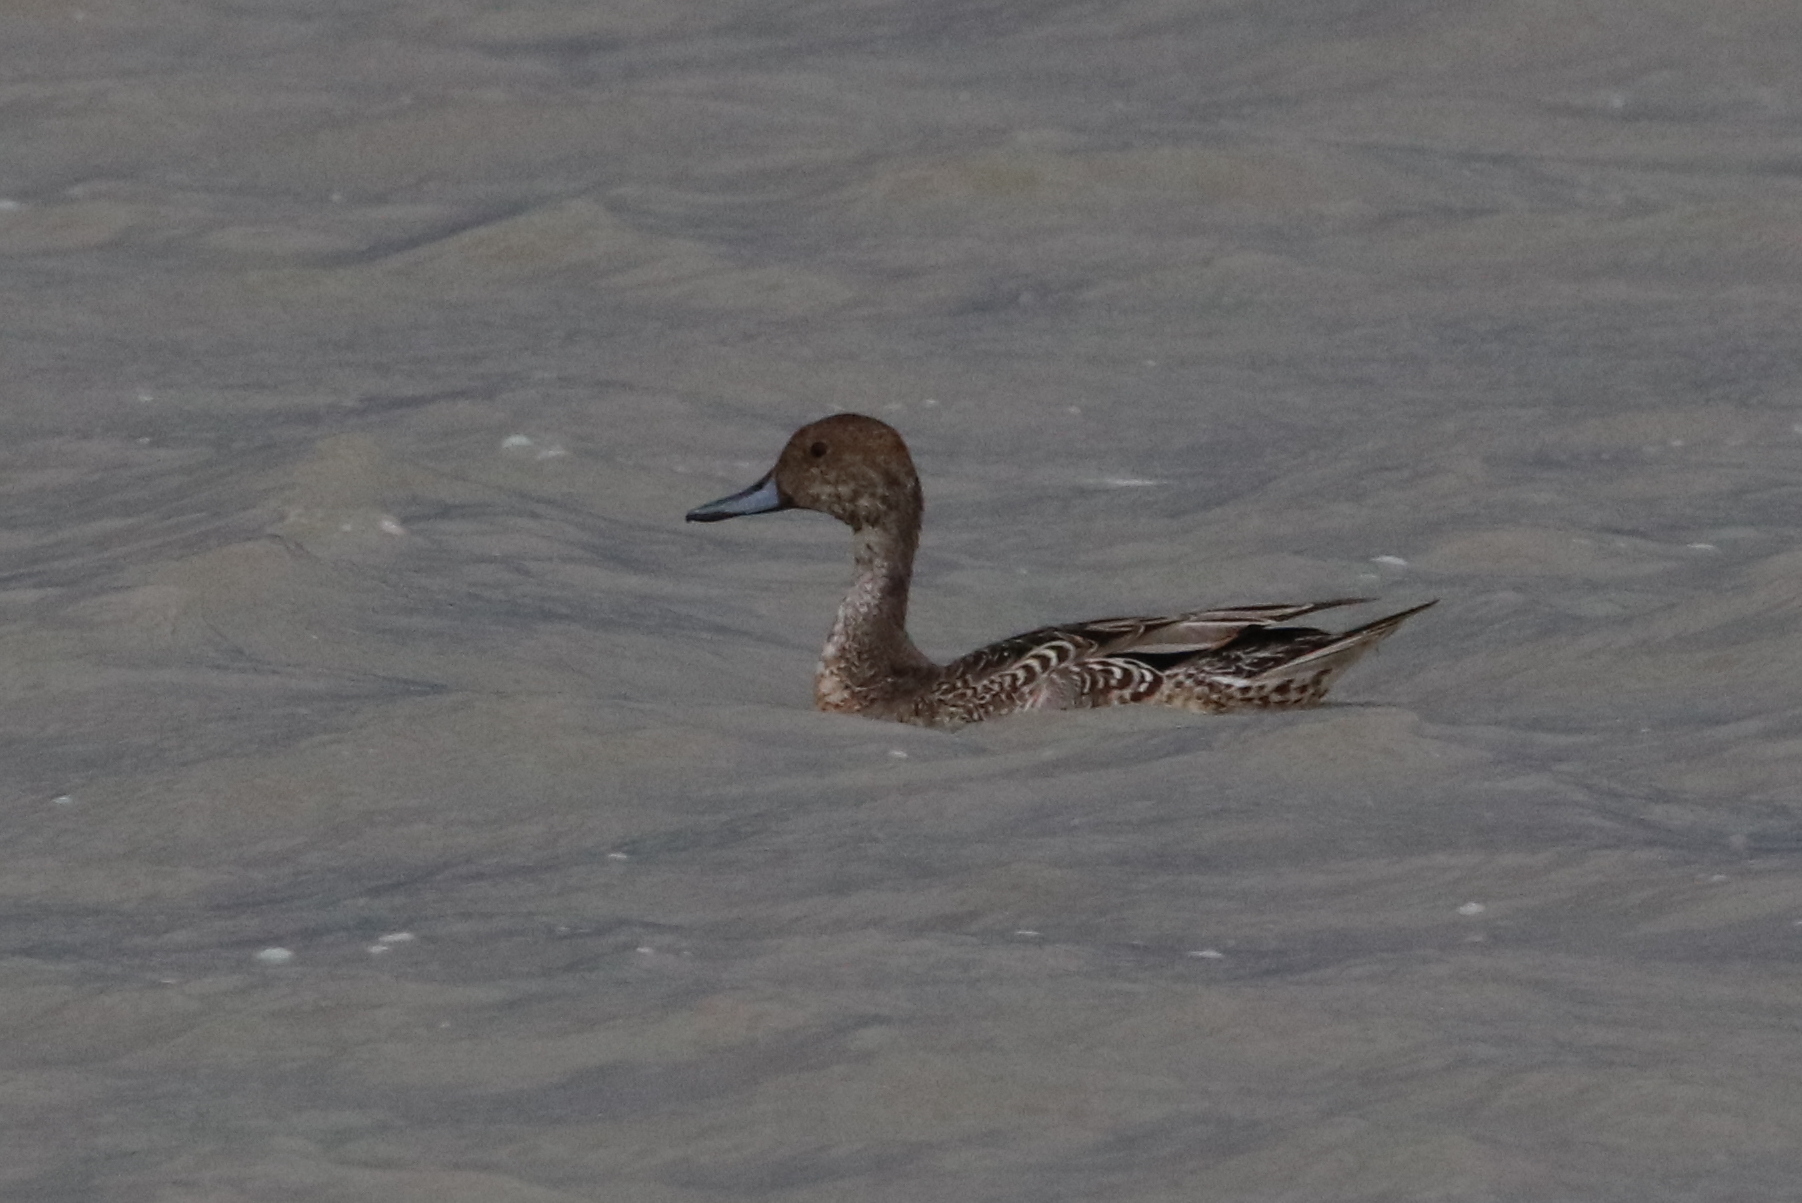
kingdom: Animalia
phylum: Chordata
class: Aves
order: Anseriformes
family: Anatidae
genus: Anas
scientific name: Anas acuta
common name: Northern pintail
